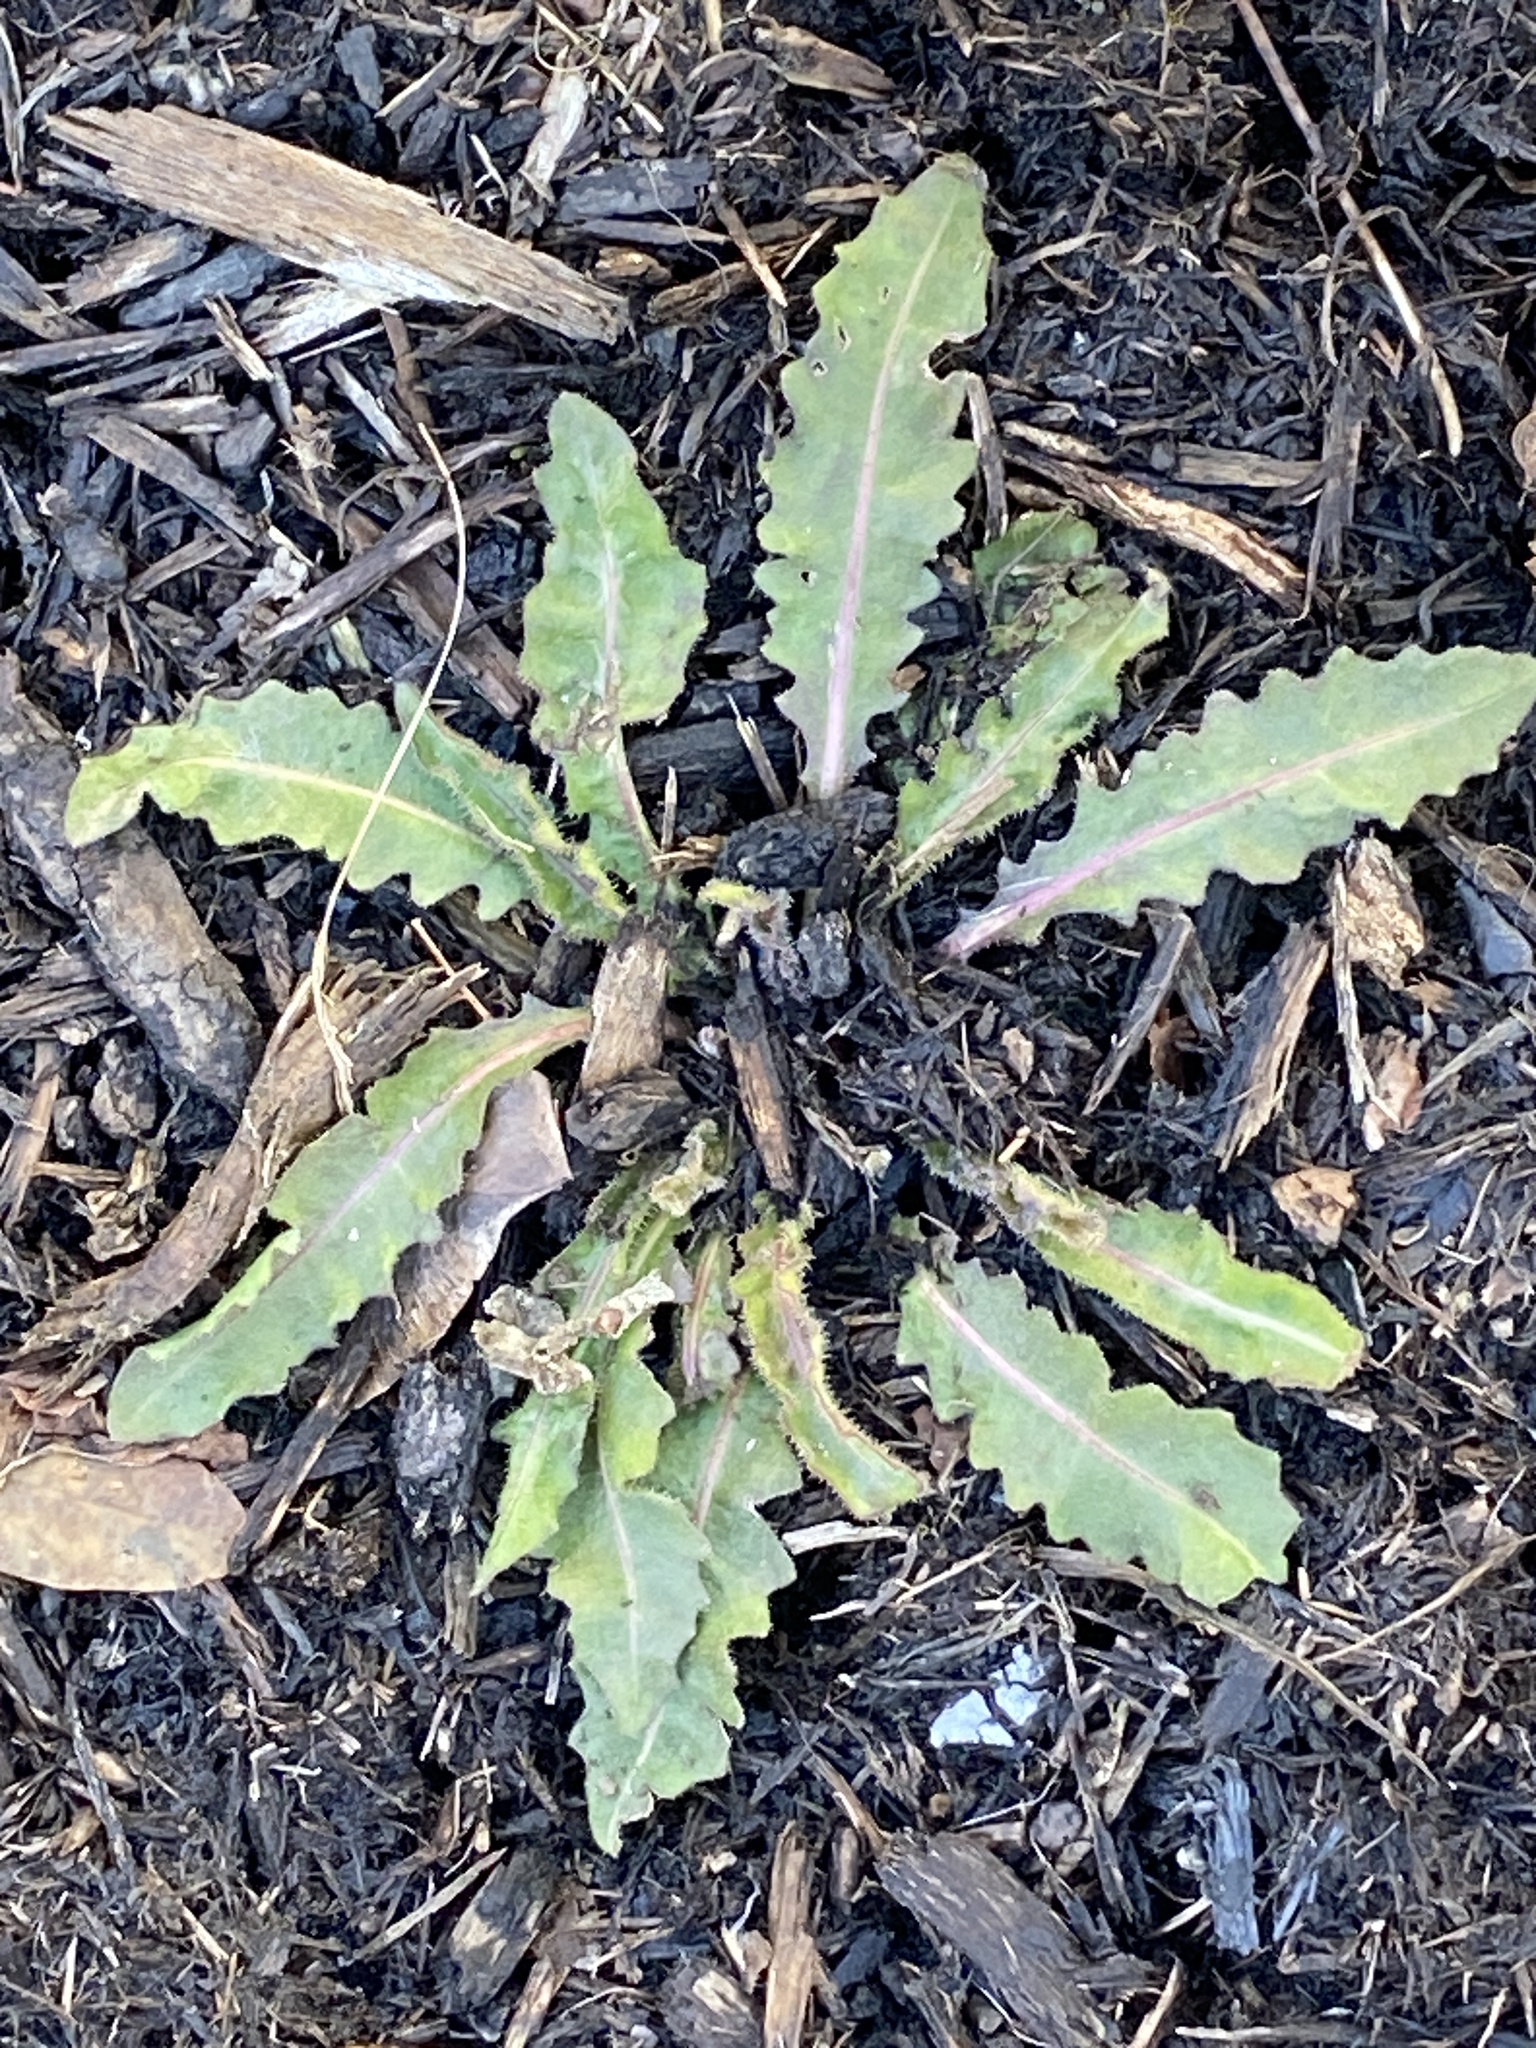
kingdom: Plantae
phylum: Tracheophyta
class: Magnoliopsida
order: Asterales
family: Asteraceae
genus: Picris
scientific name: Picris hieracioides
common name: Hawkweed oxtongue
